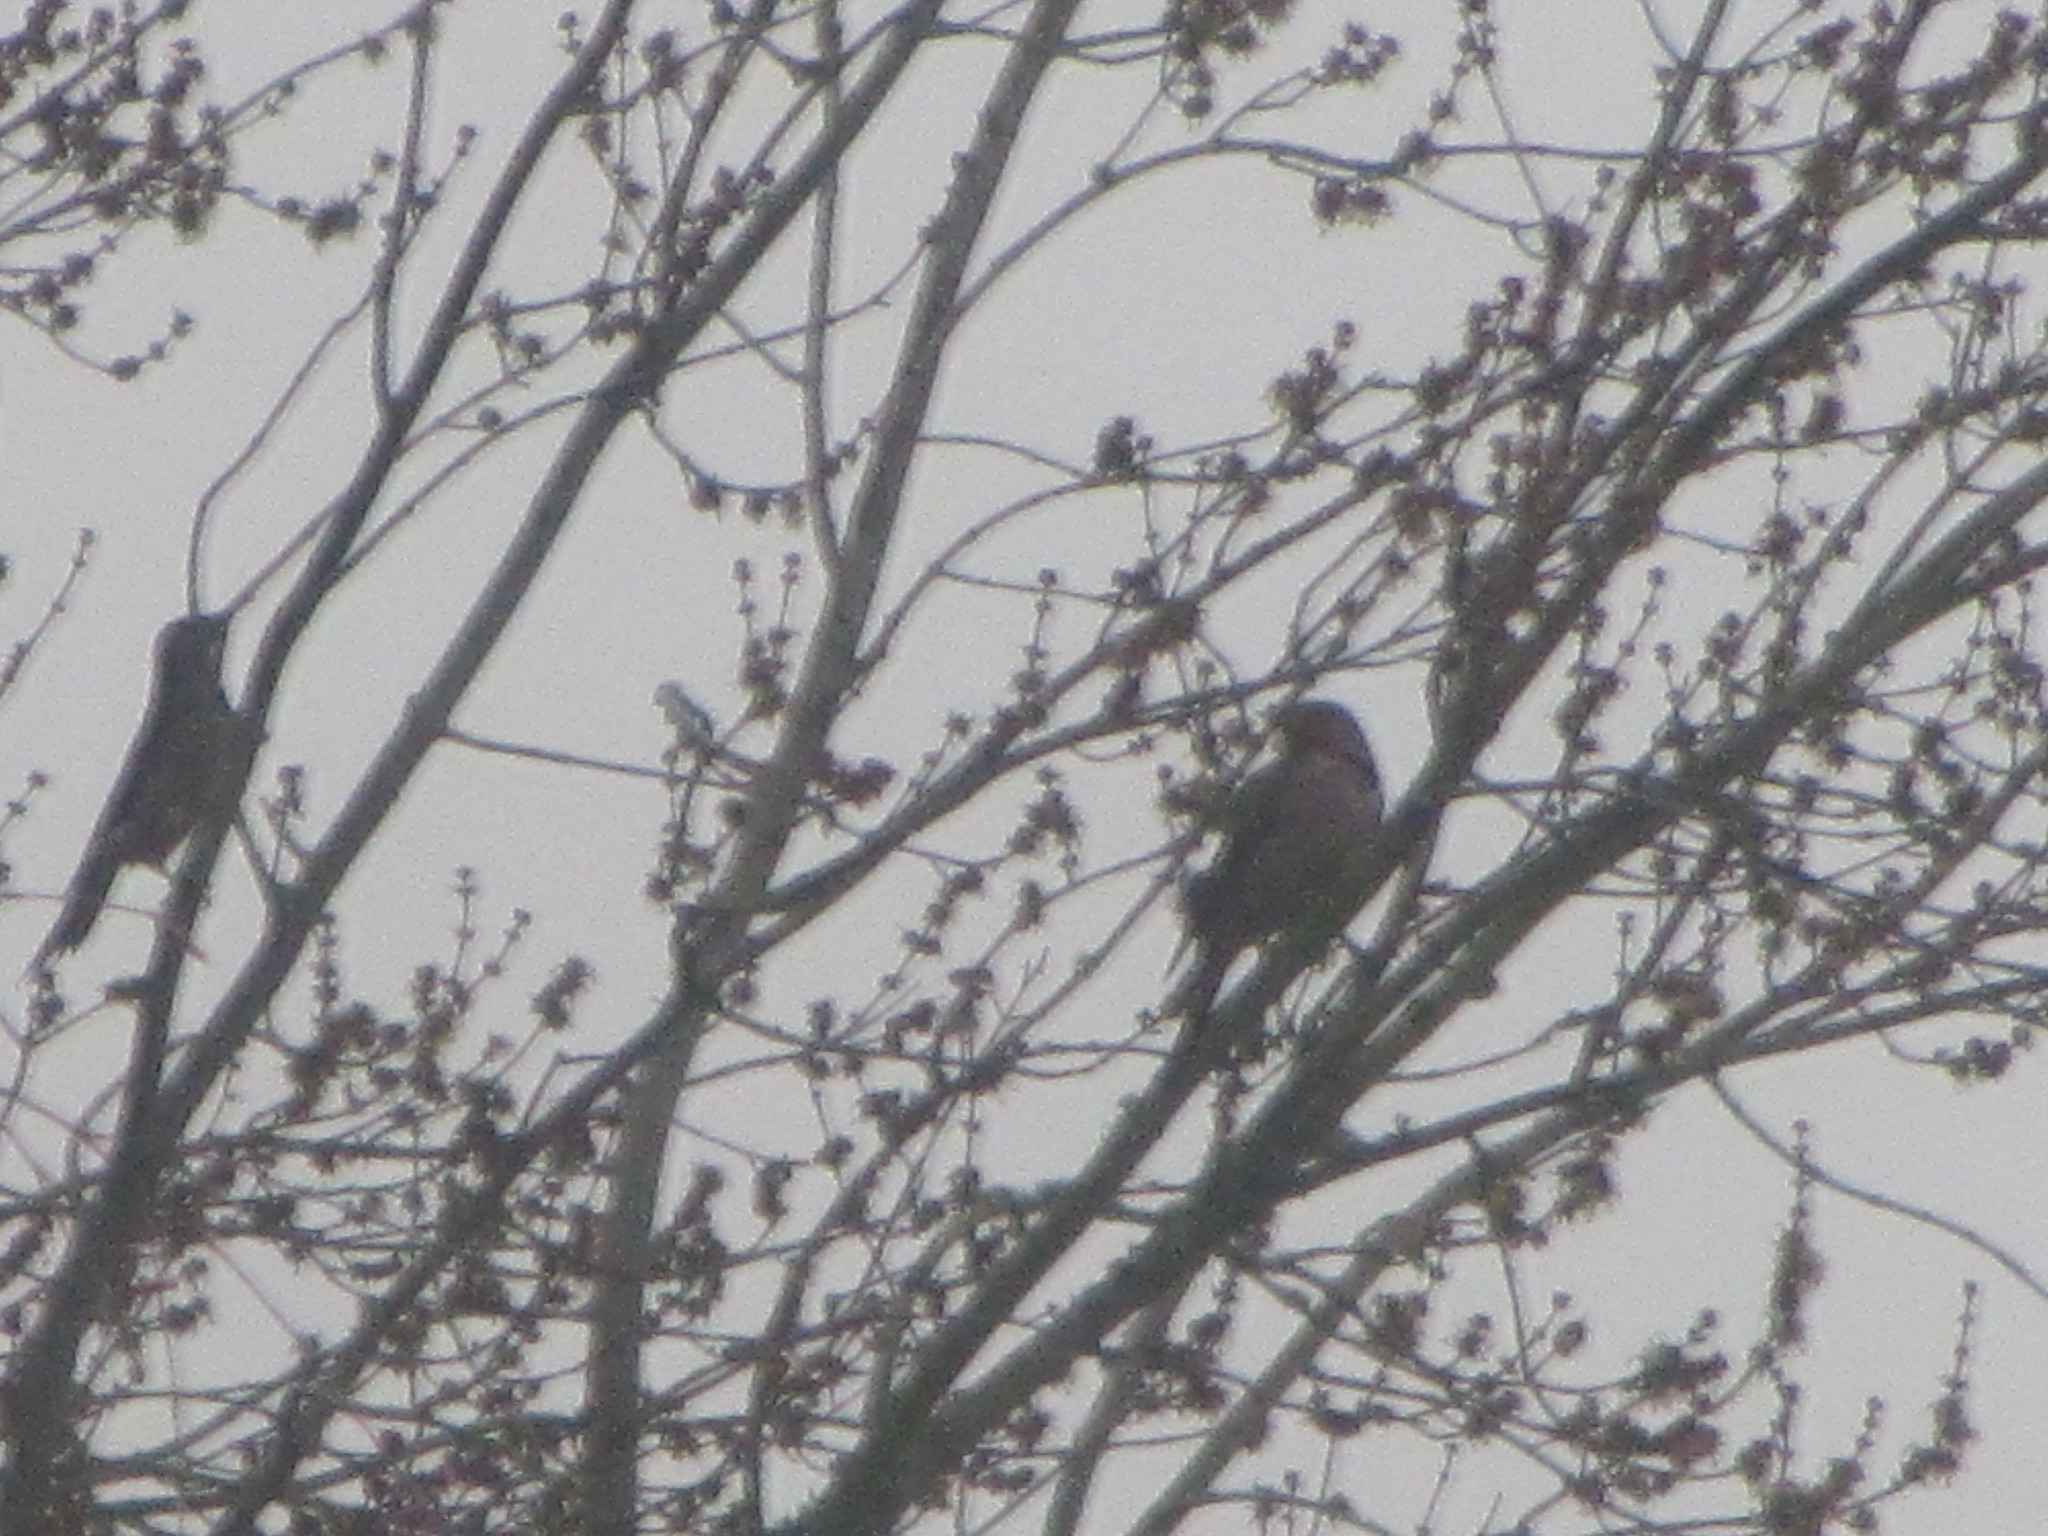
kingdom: Animalia
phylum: Chordata
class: Aves
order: Piciformes
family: Picidae
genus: Colaptes
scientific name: Colaptes auratus
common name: Northern flicker
